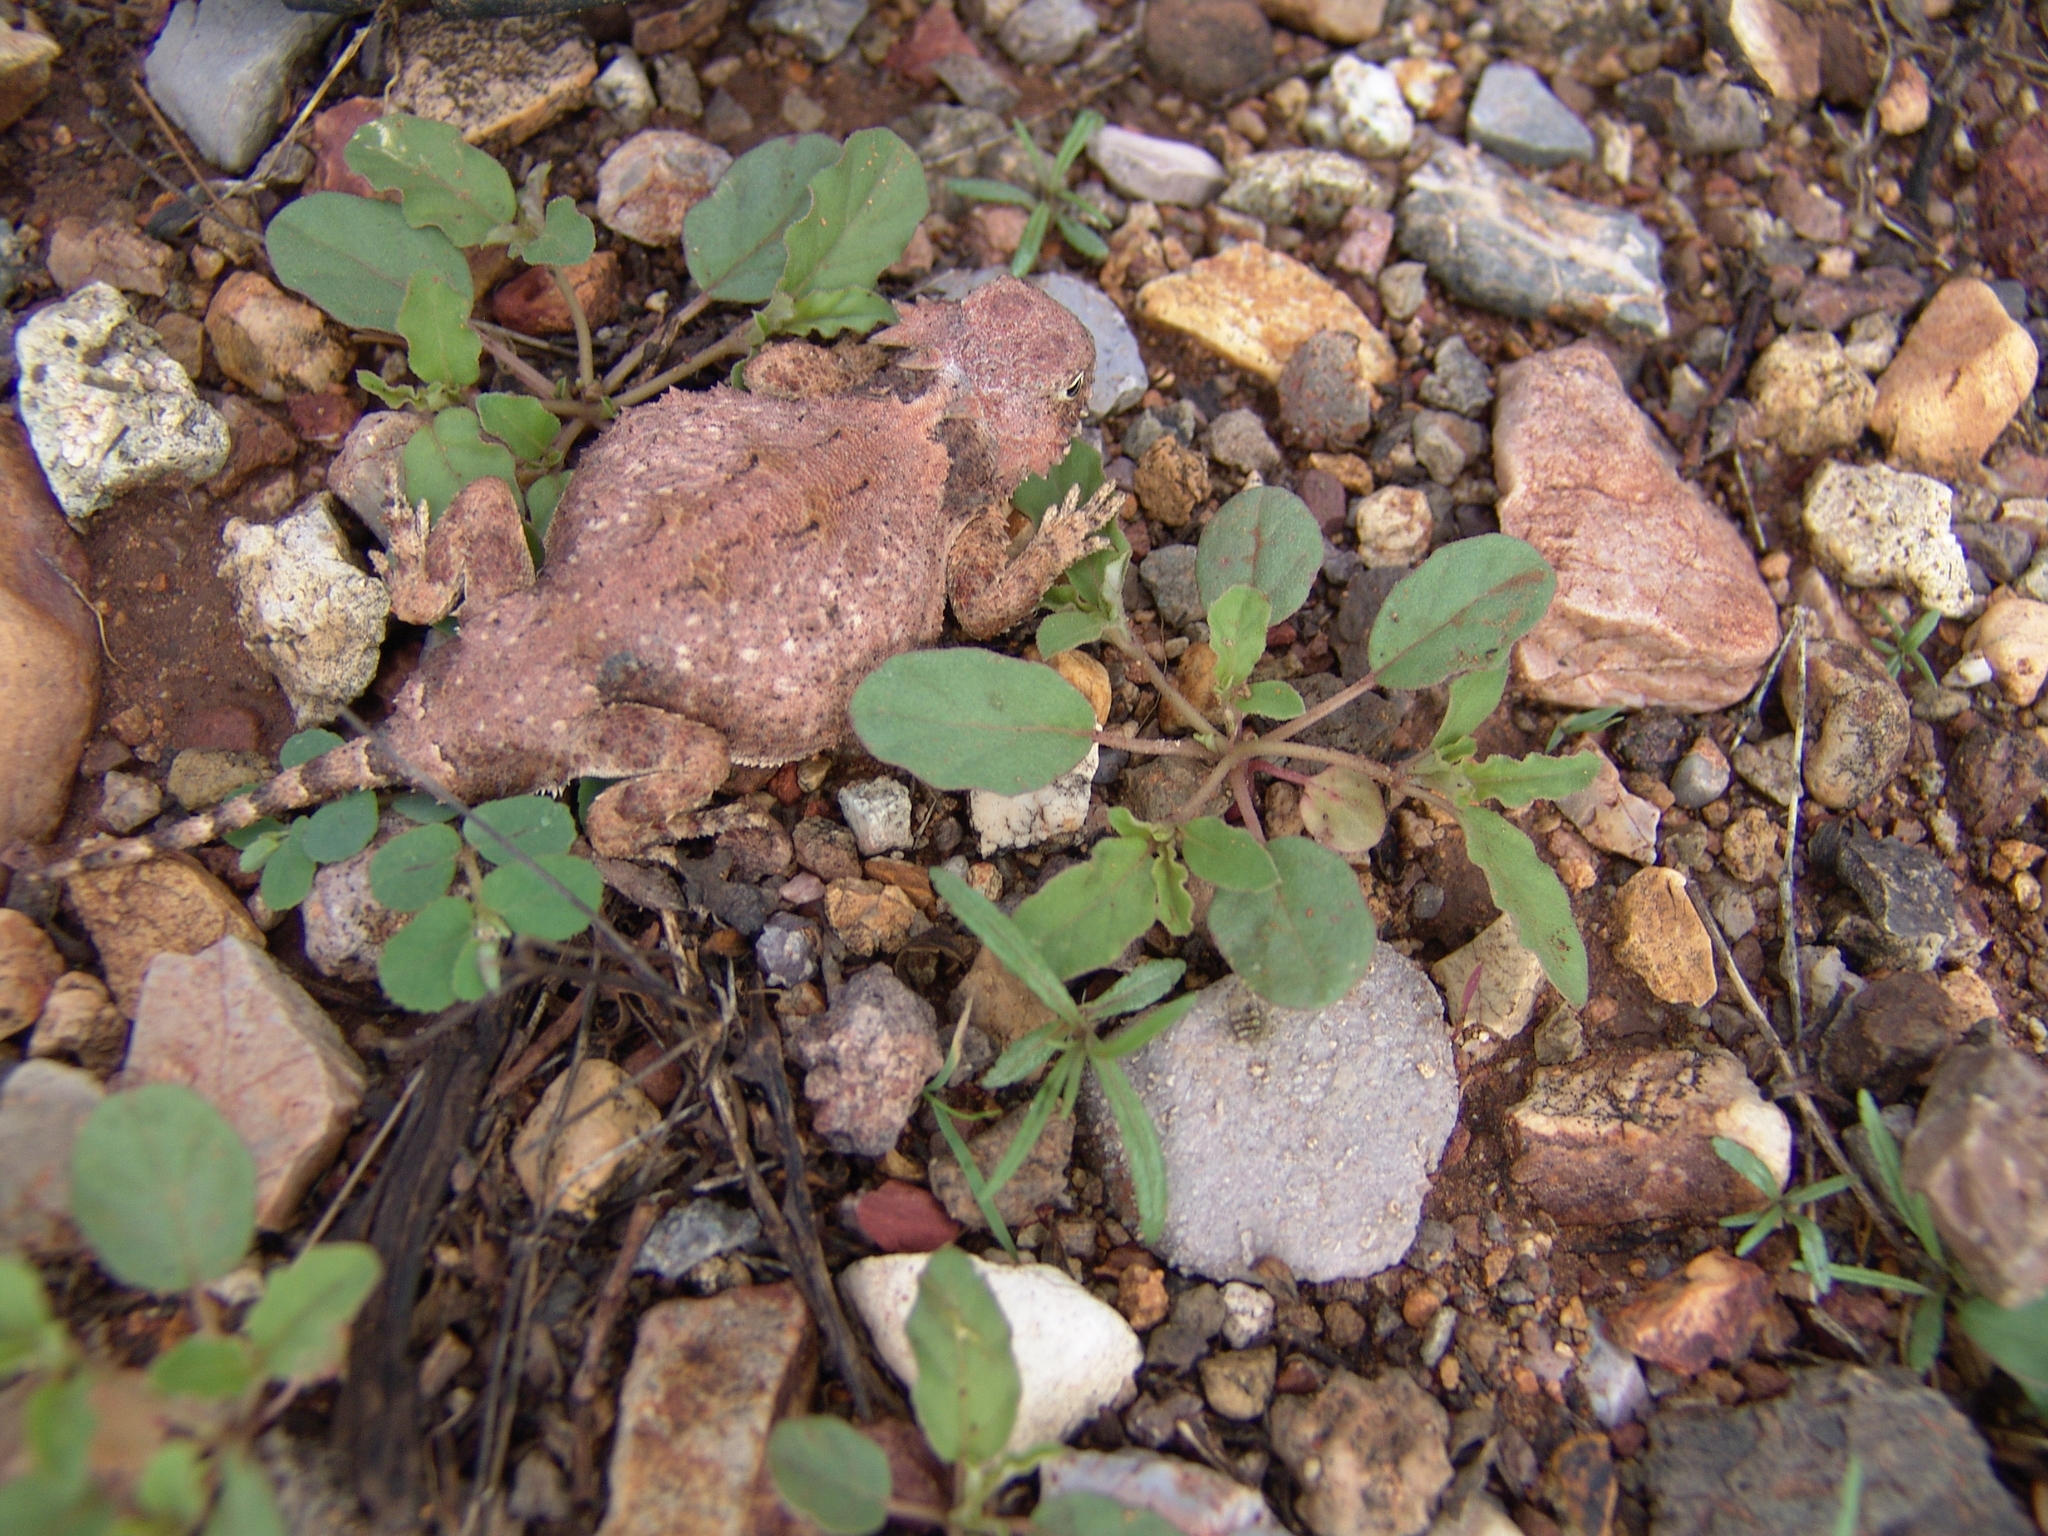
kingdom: Animalia
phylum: Chordata
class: Squamata
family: Phrynosomatidae
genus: Phrynosoma
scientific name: Phrynosoma modestum
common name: Roundtail horned lizard
